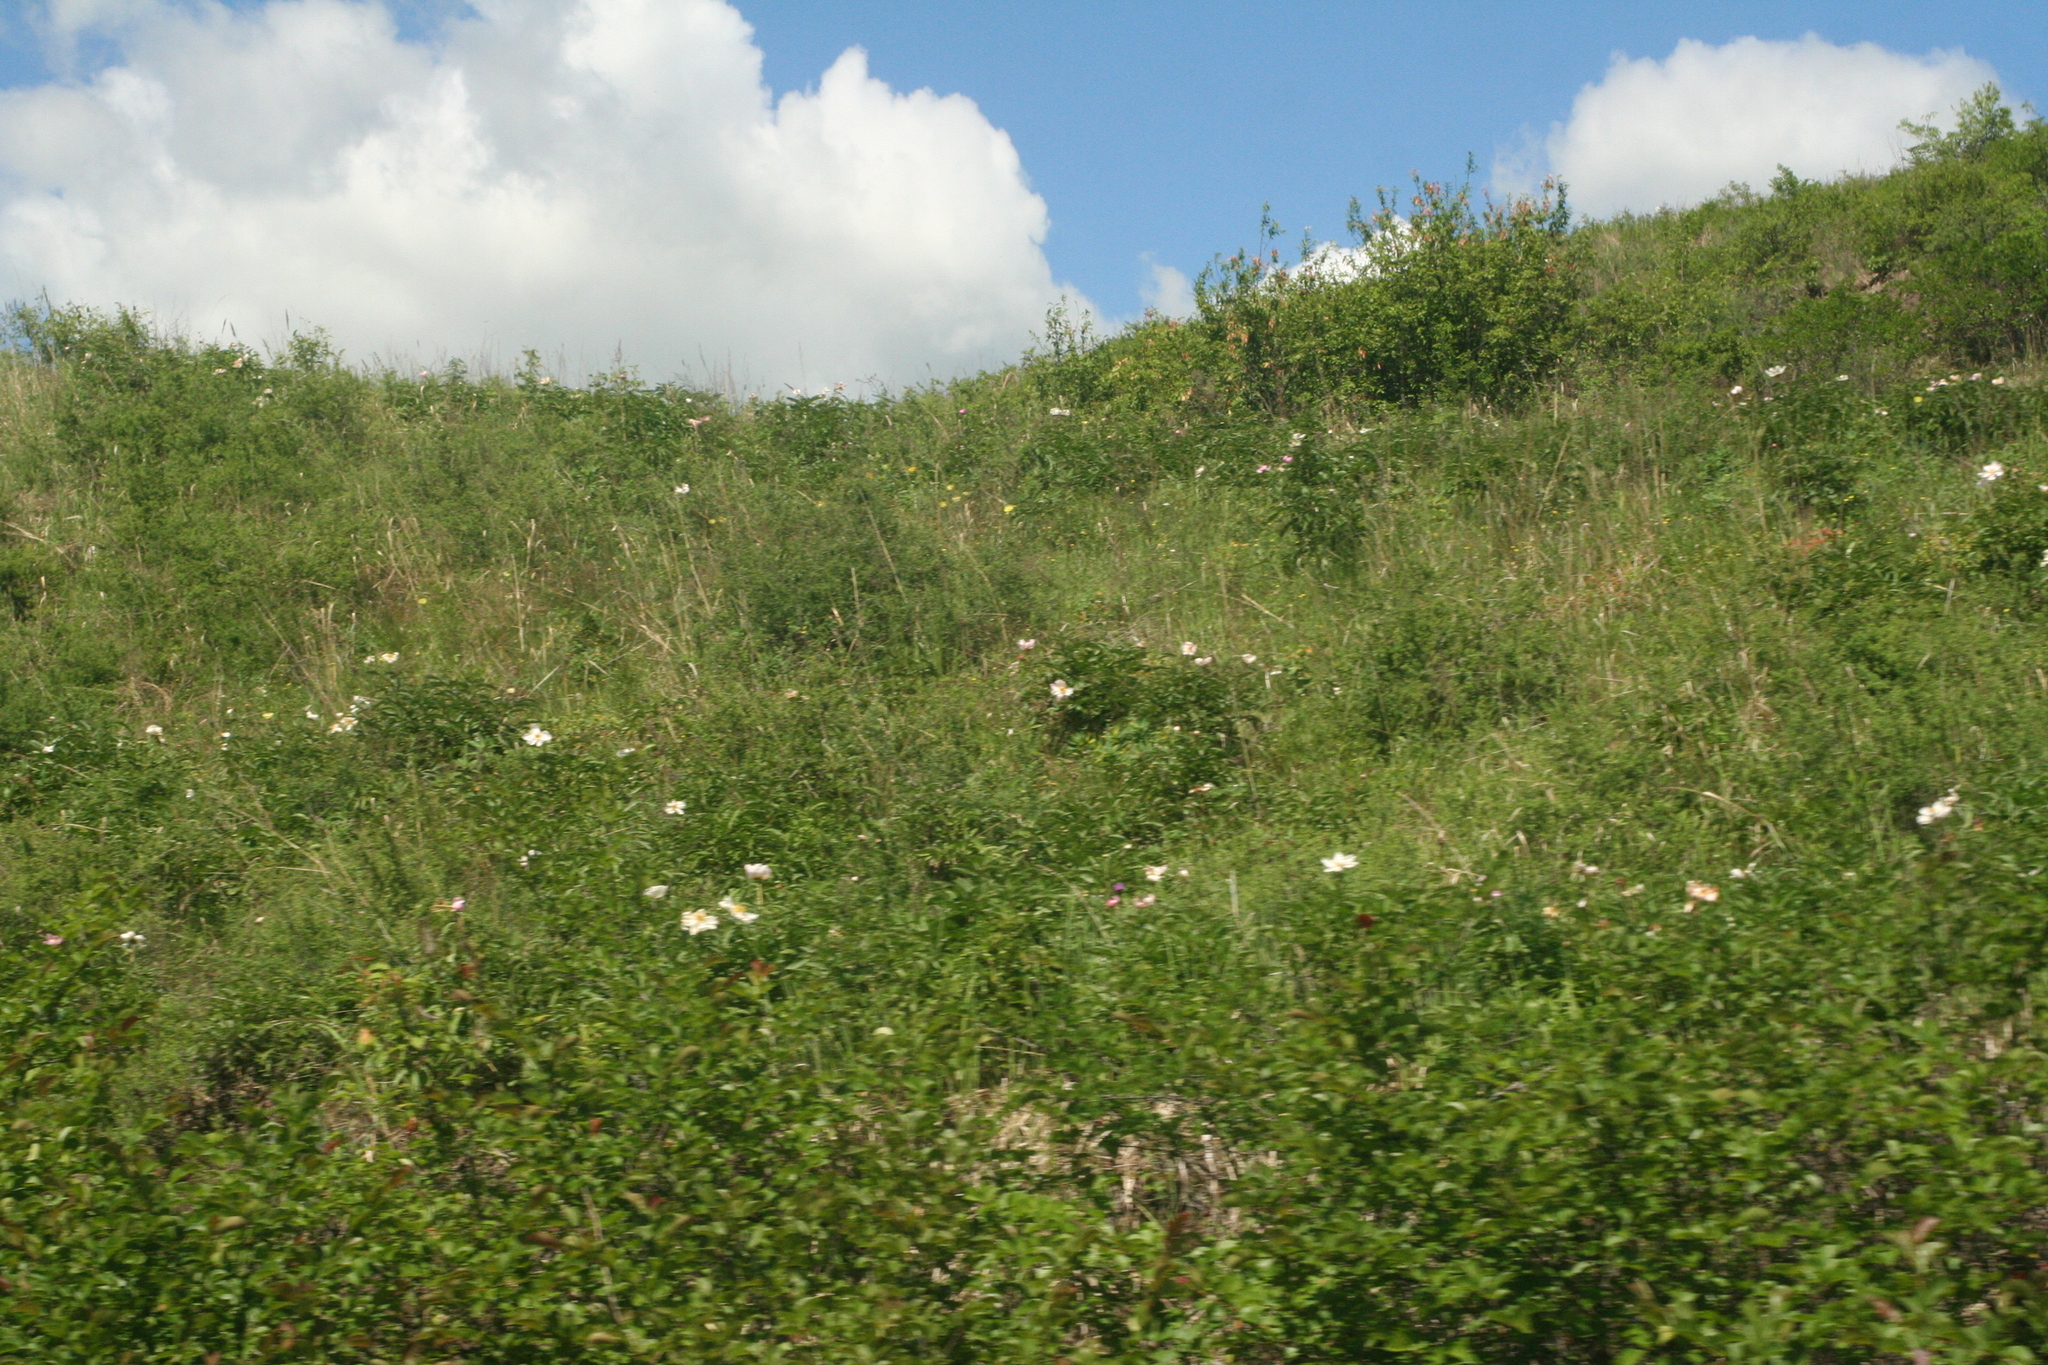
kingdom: Plantae
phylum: Tracheophyta
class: Magnoliopsida
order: Saxifragales
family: Paeoniaceae
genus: Paeonia
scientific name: Paeonia lactiflora
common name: Chinese peony
